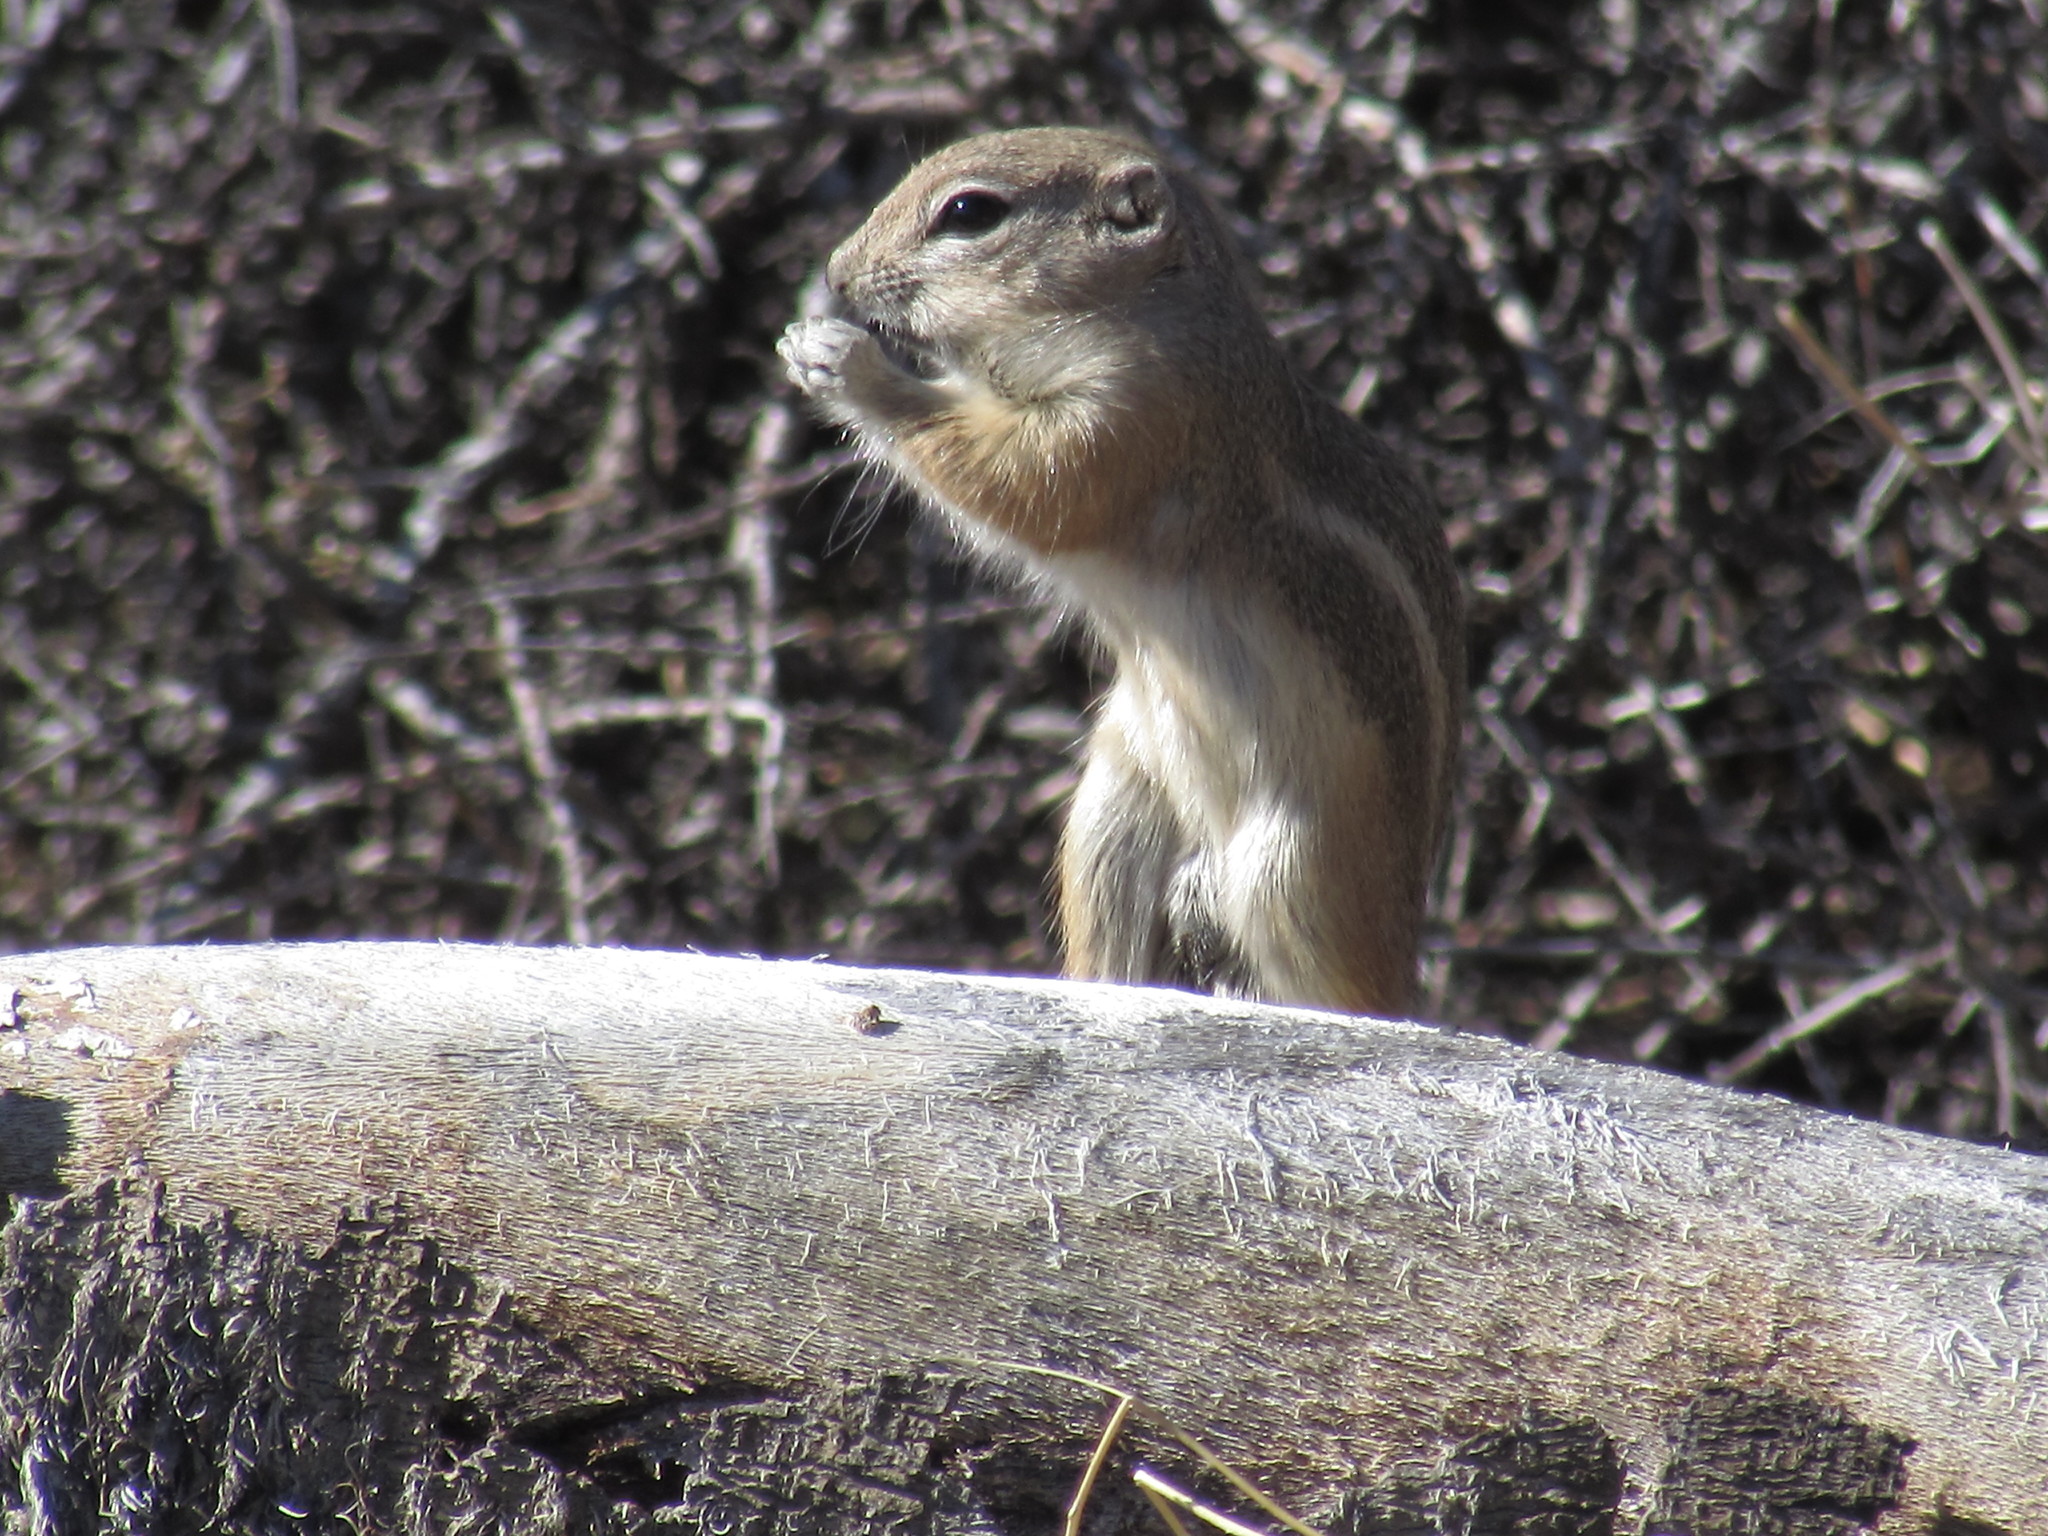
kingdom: Animalia
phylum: Chordata
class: Mammalia
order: Rodentia
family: Sciuridae
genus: Ammospermophilus
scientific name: Ammospermophilus leucurus
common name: White-tailed antelope squirrel
